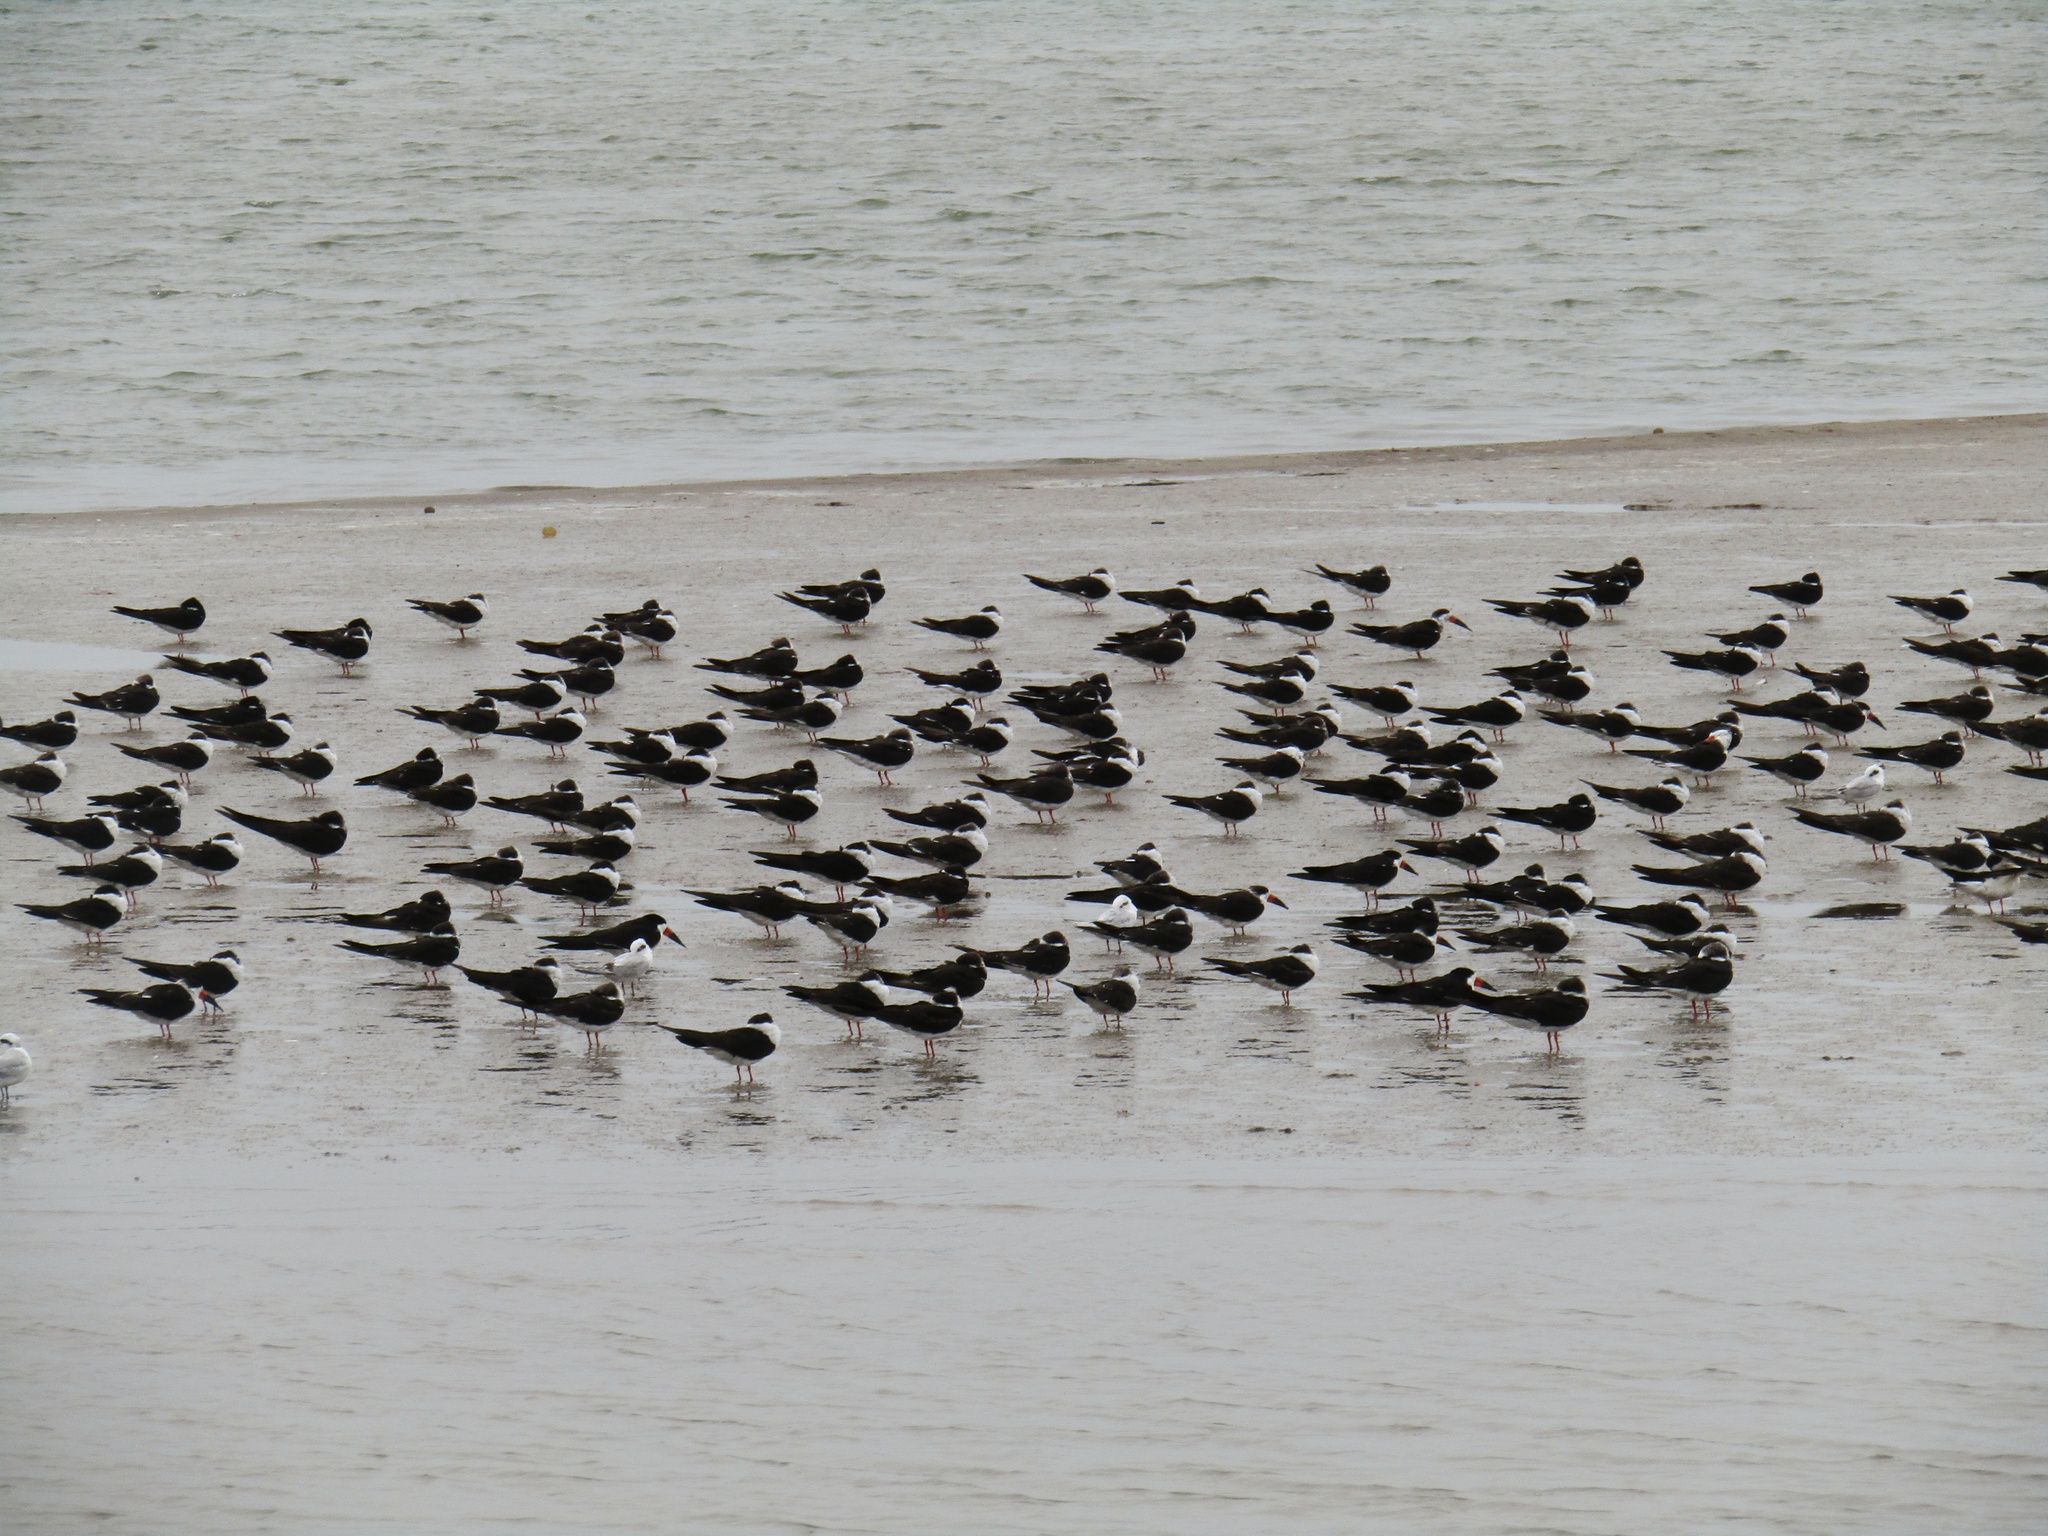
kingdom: Animalia
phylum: Chordata
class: Aves
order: Charadriiformes
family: Laridae
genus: Rynchops
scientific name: Rynchops niger
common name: Black skimmer
